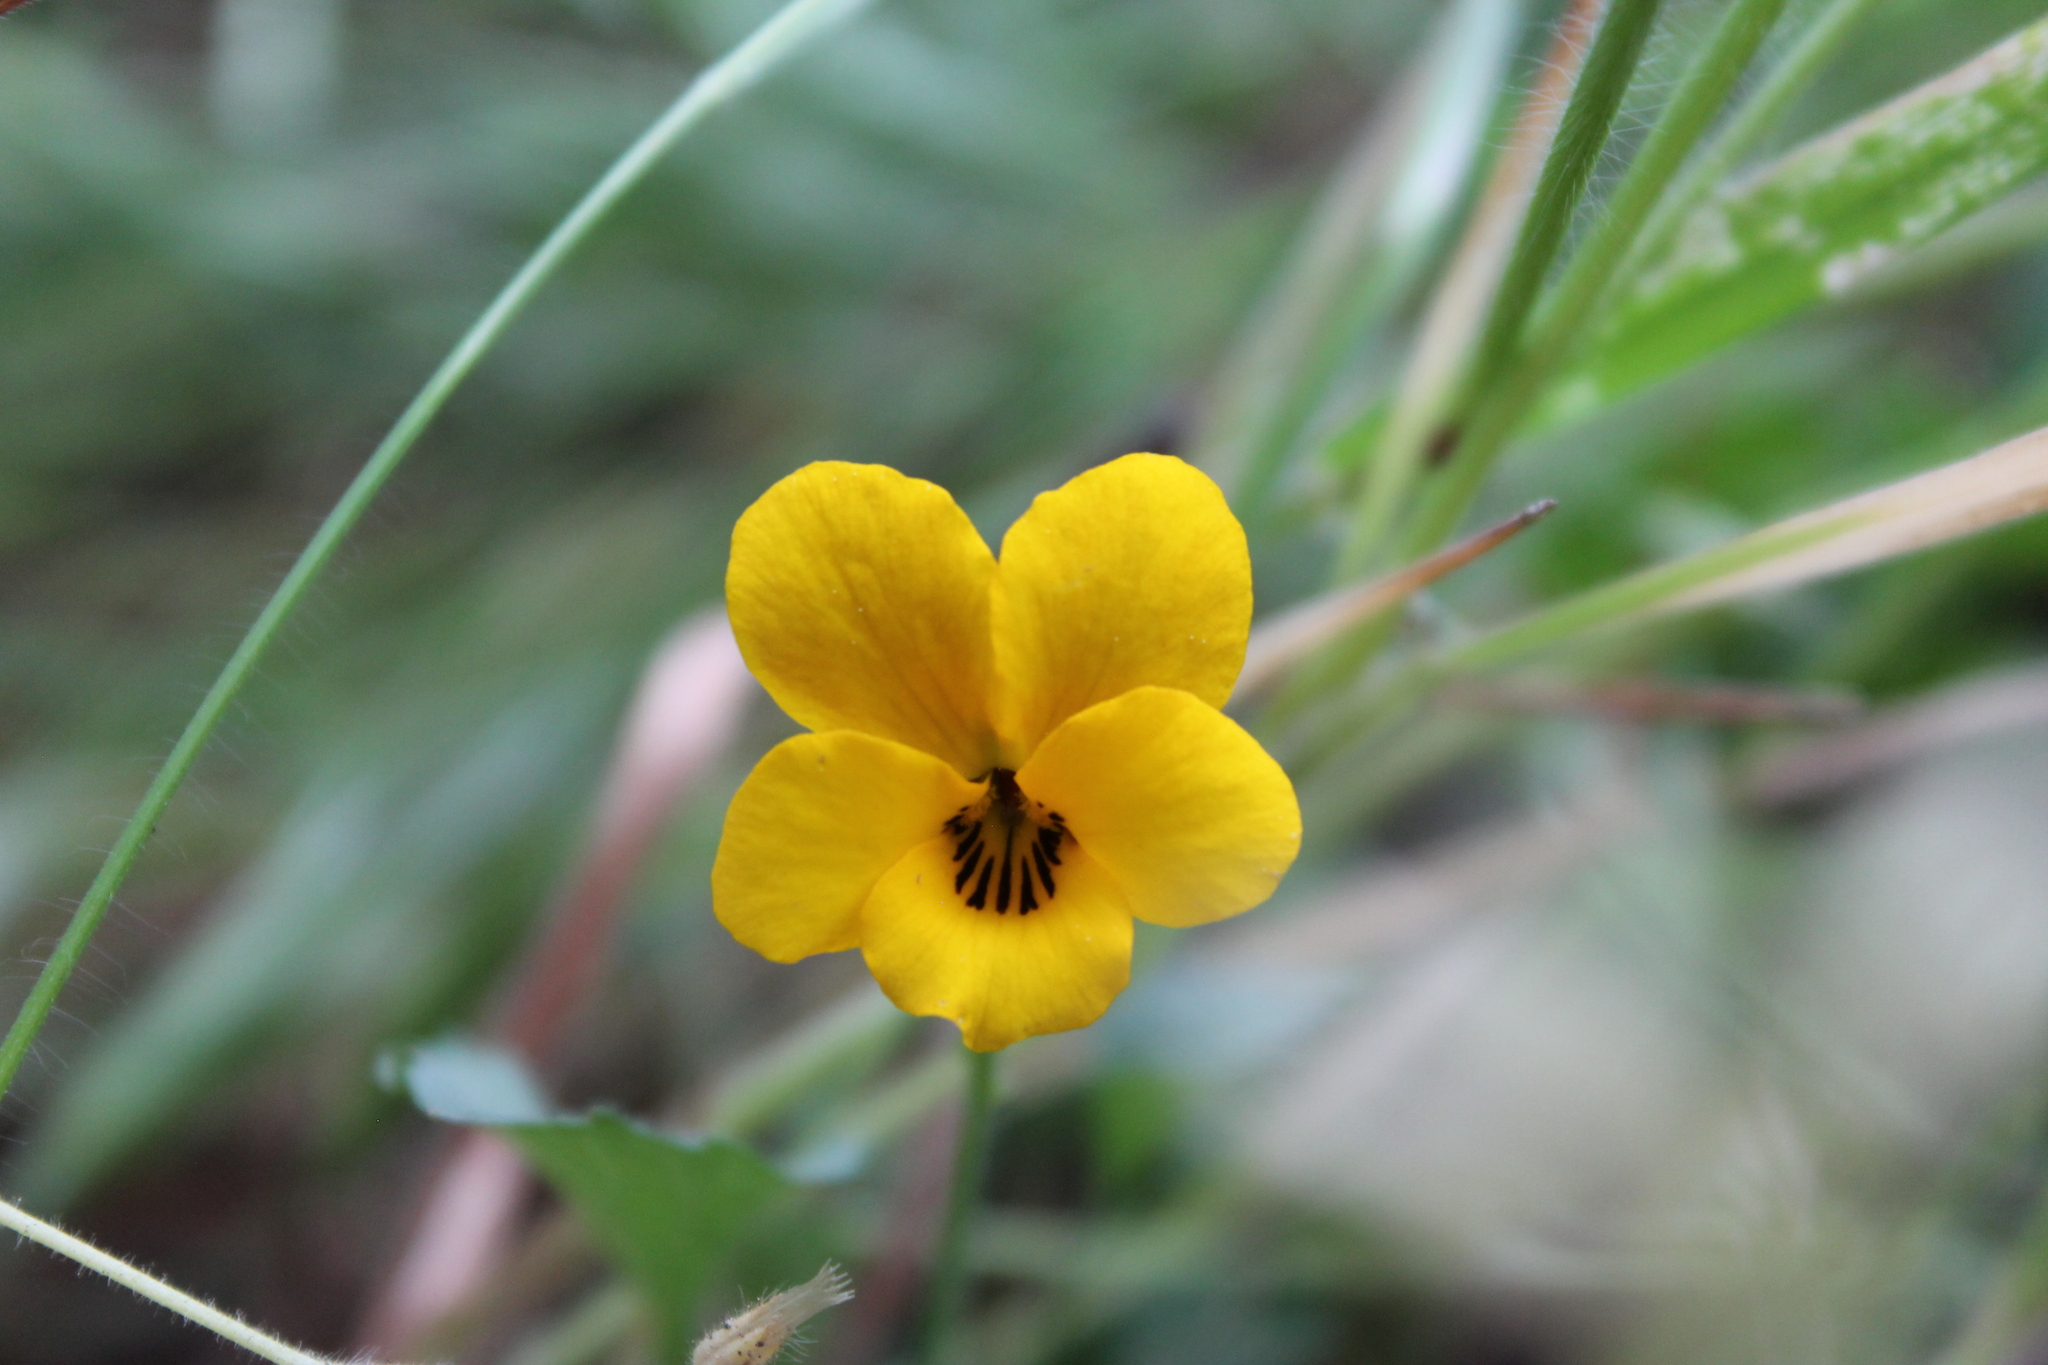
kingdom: Plantae
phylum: Tracheophyta
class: Magnoliopsida
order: Malpighiales
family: Violaceae
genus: Viola
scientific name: Viola pedunculata
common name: California golden violet
